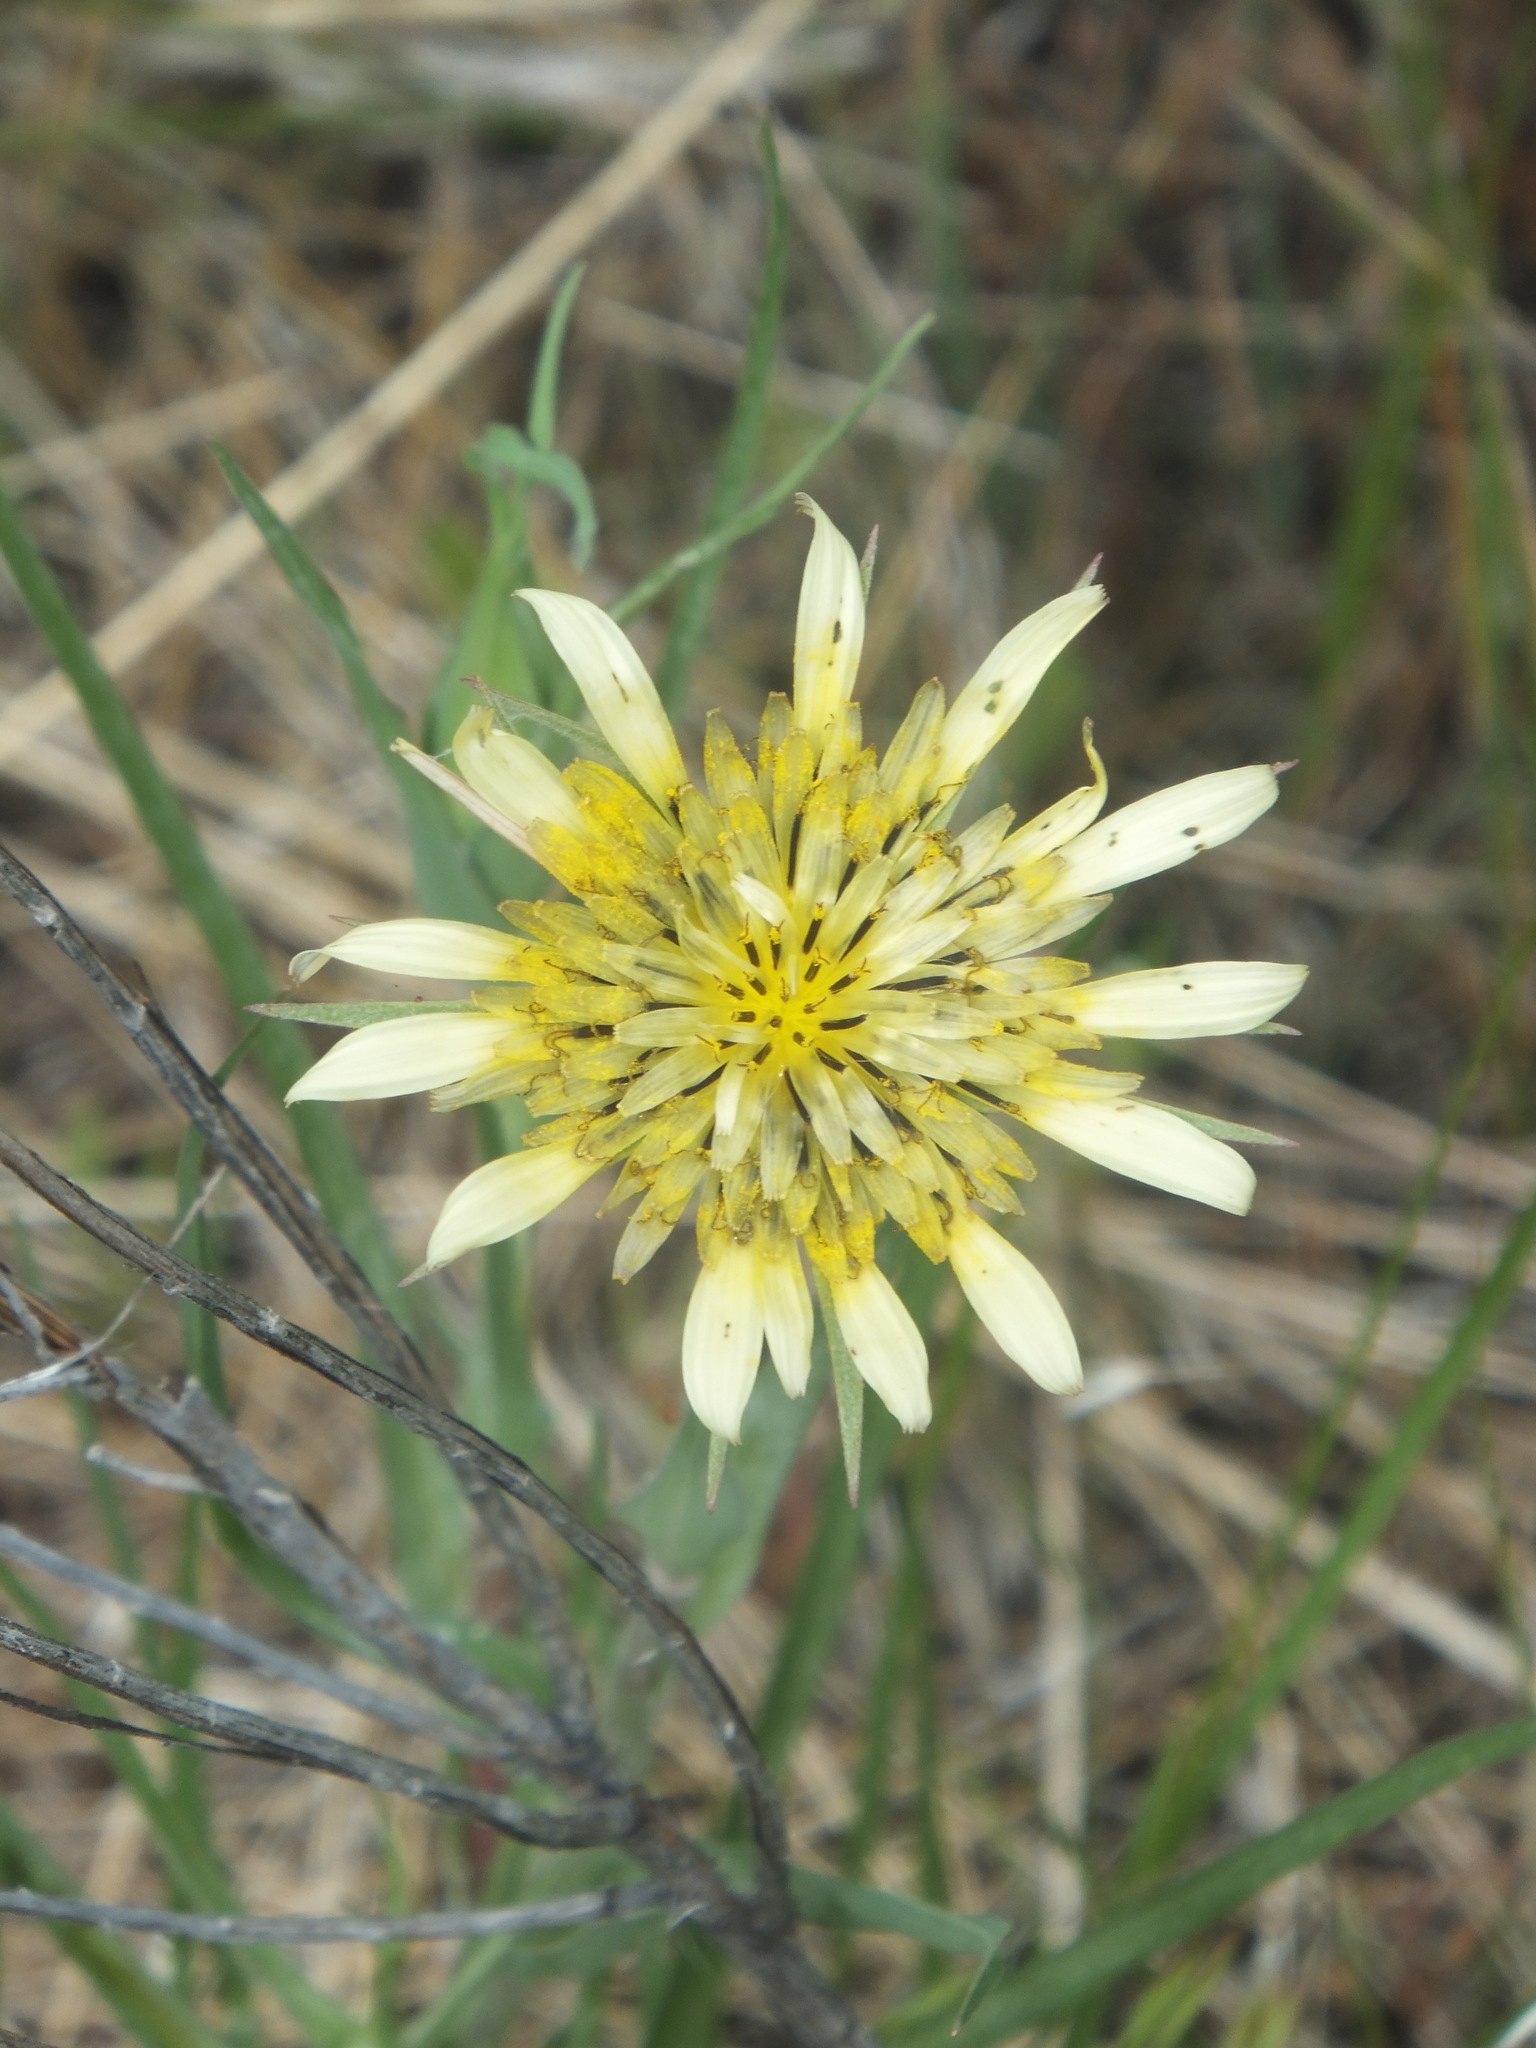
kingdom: Plantae
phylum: Tracheophyta
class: Magnoliopsida
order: Asterales
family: Asteraceae
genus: Tragopogon
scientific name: Tragopogon pratensis
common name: Goat's-beard
